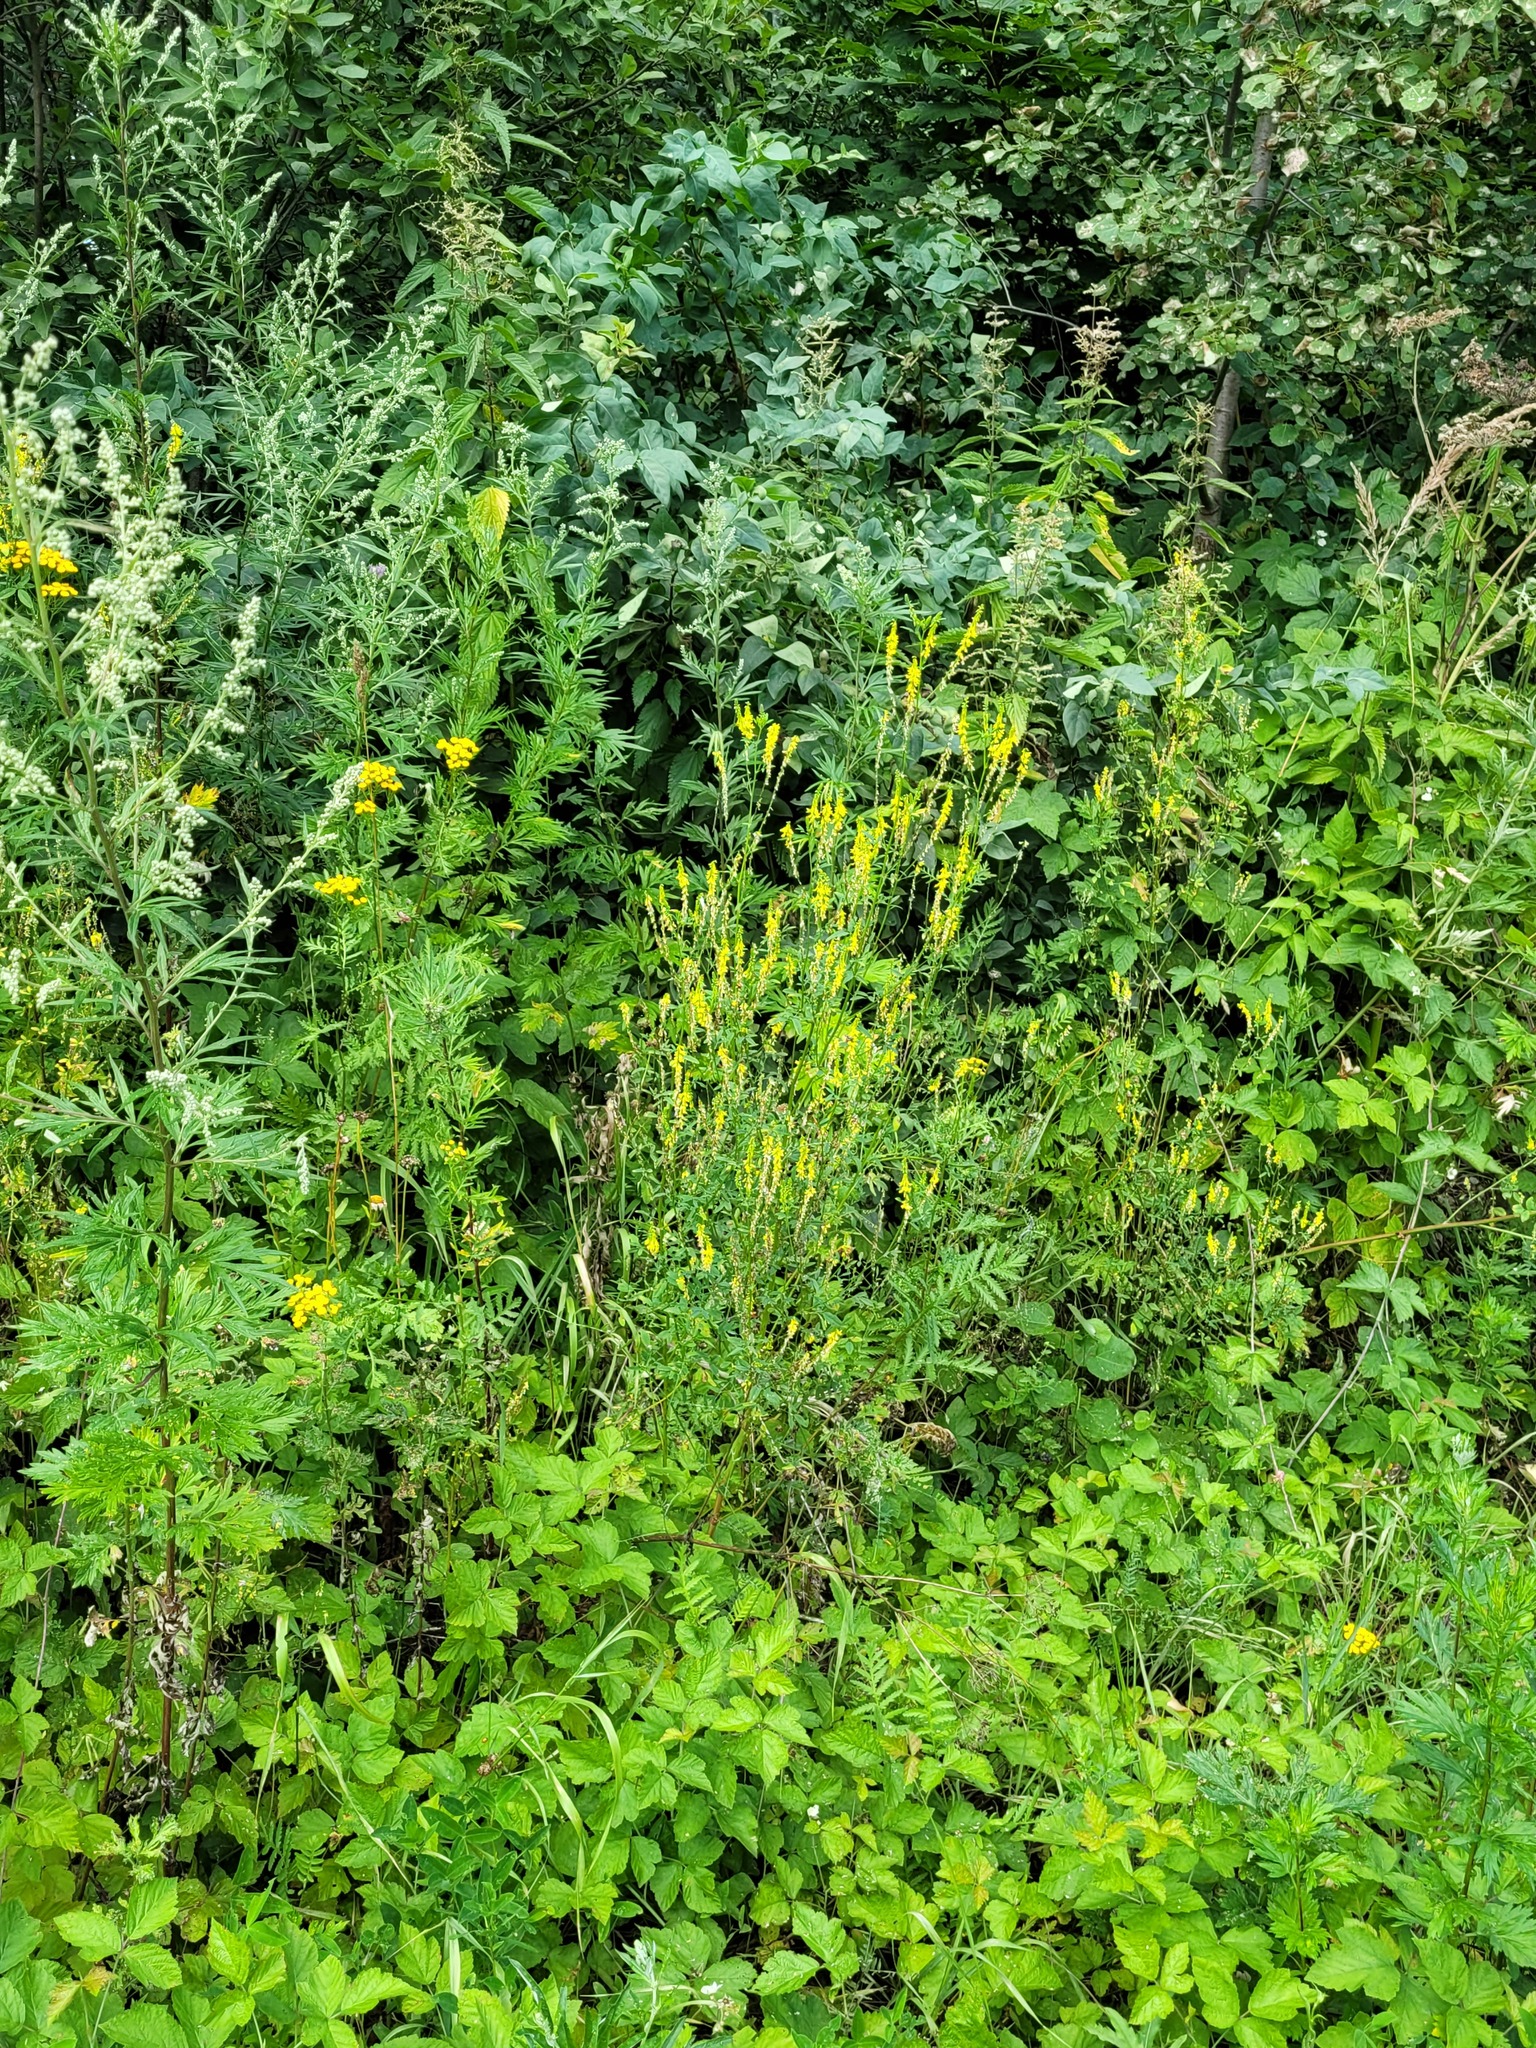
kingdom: Plantae
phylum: Tracheophyta
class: Magnoliopsida
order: Fabales
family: Fabaceae
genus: Melilotus
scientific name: Melilotus officinalis
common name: Sweetclover
